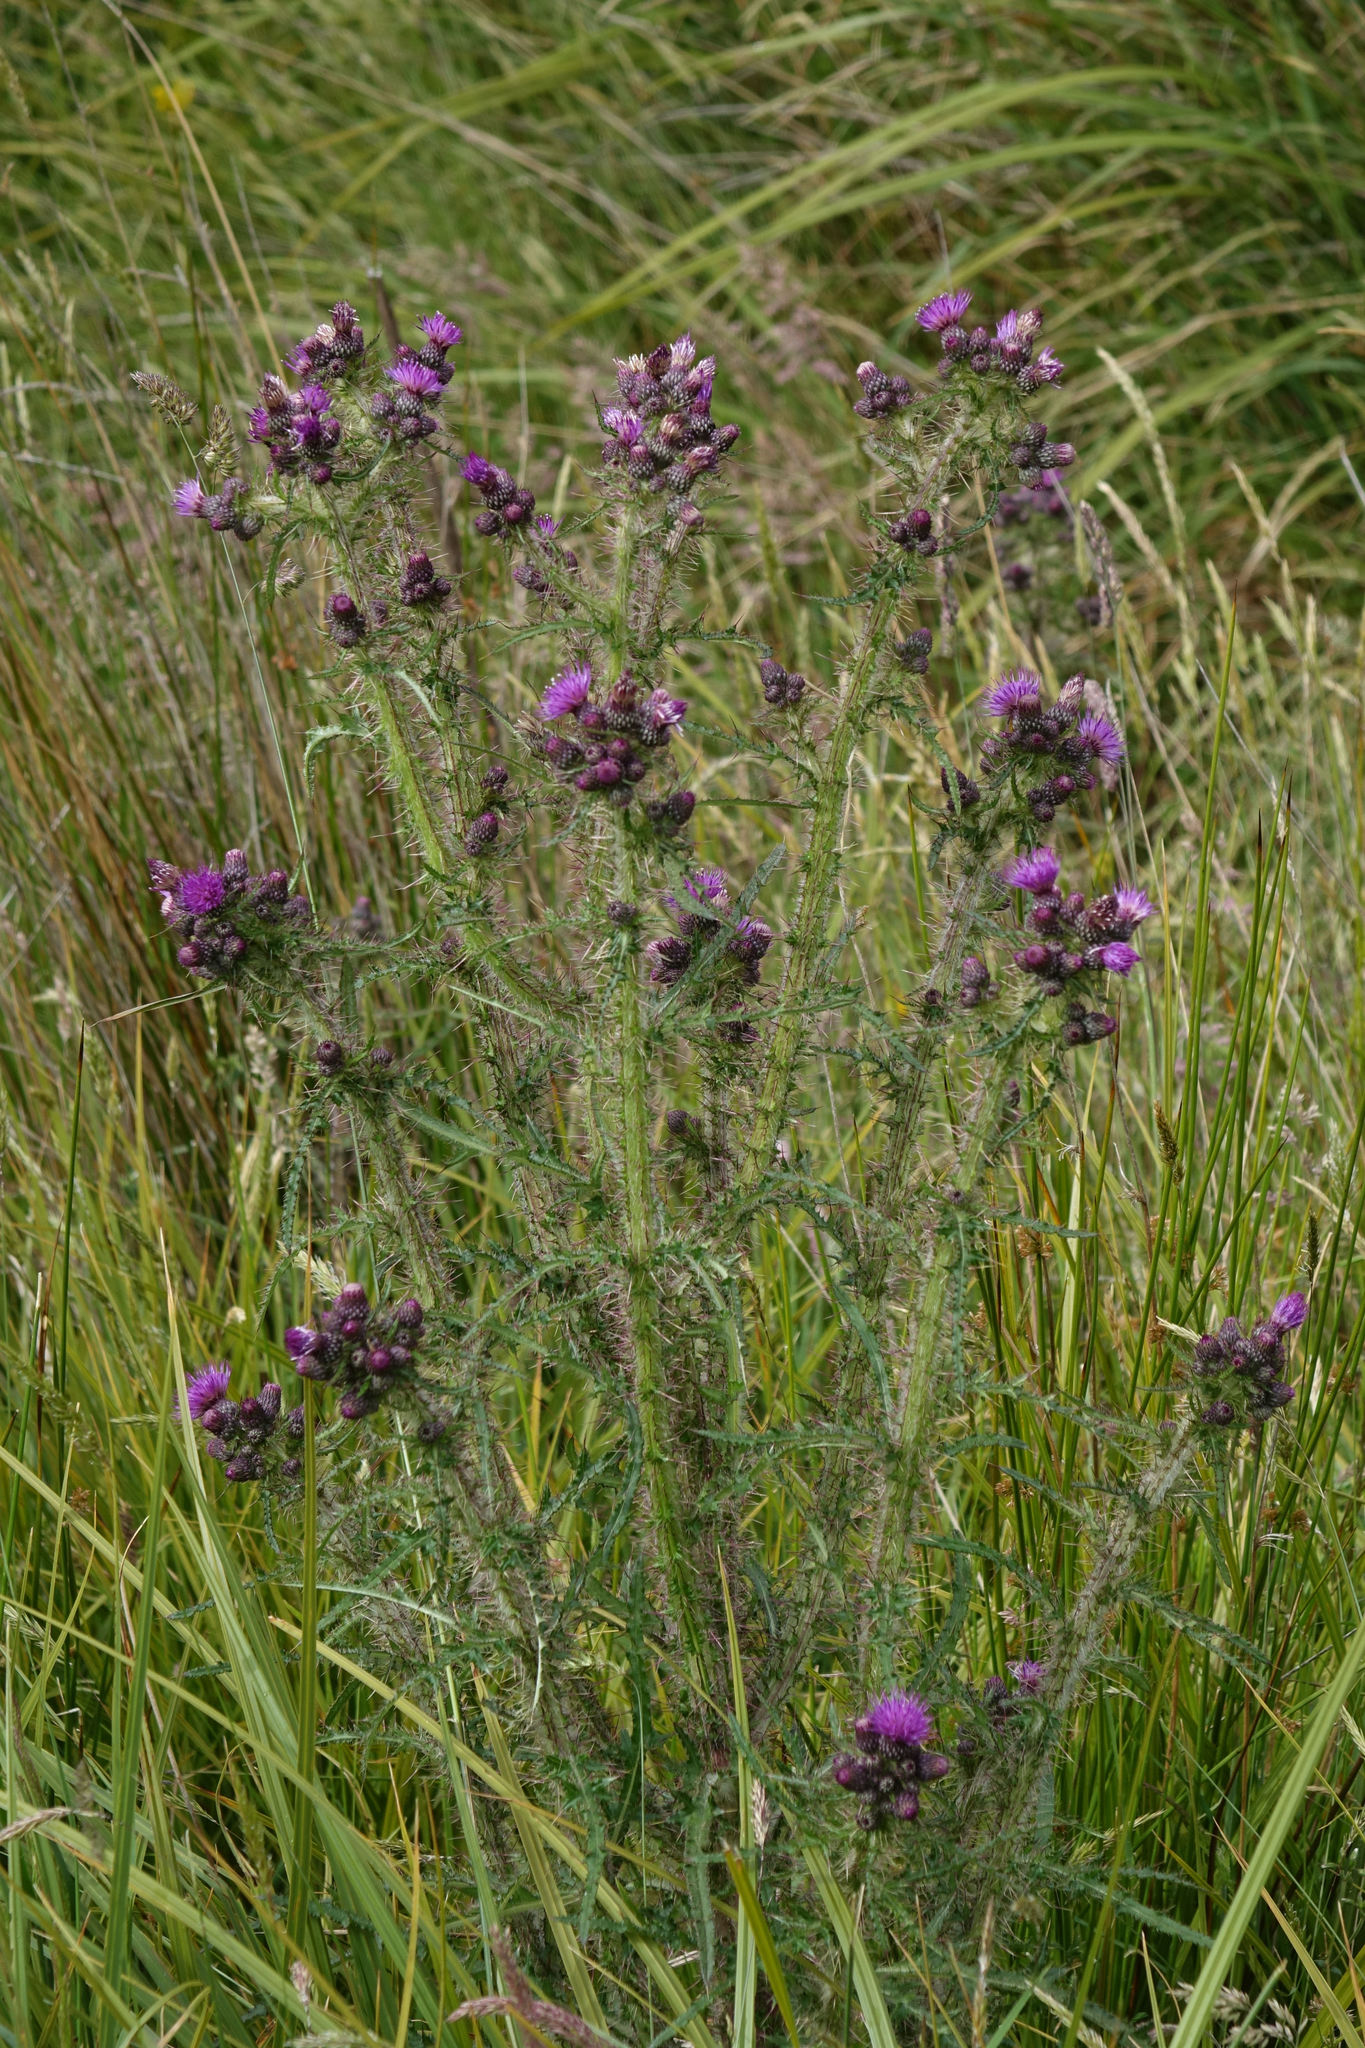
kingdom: Plantae
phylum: Tracheophyta
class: Magnoliopsida
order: Asterales
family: Asteraceae
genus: Carduus
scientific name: Carduus tenuiflorus
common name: Slender thistle
